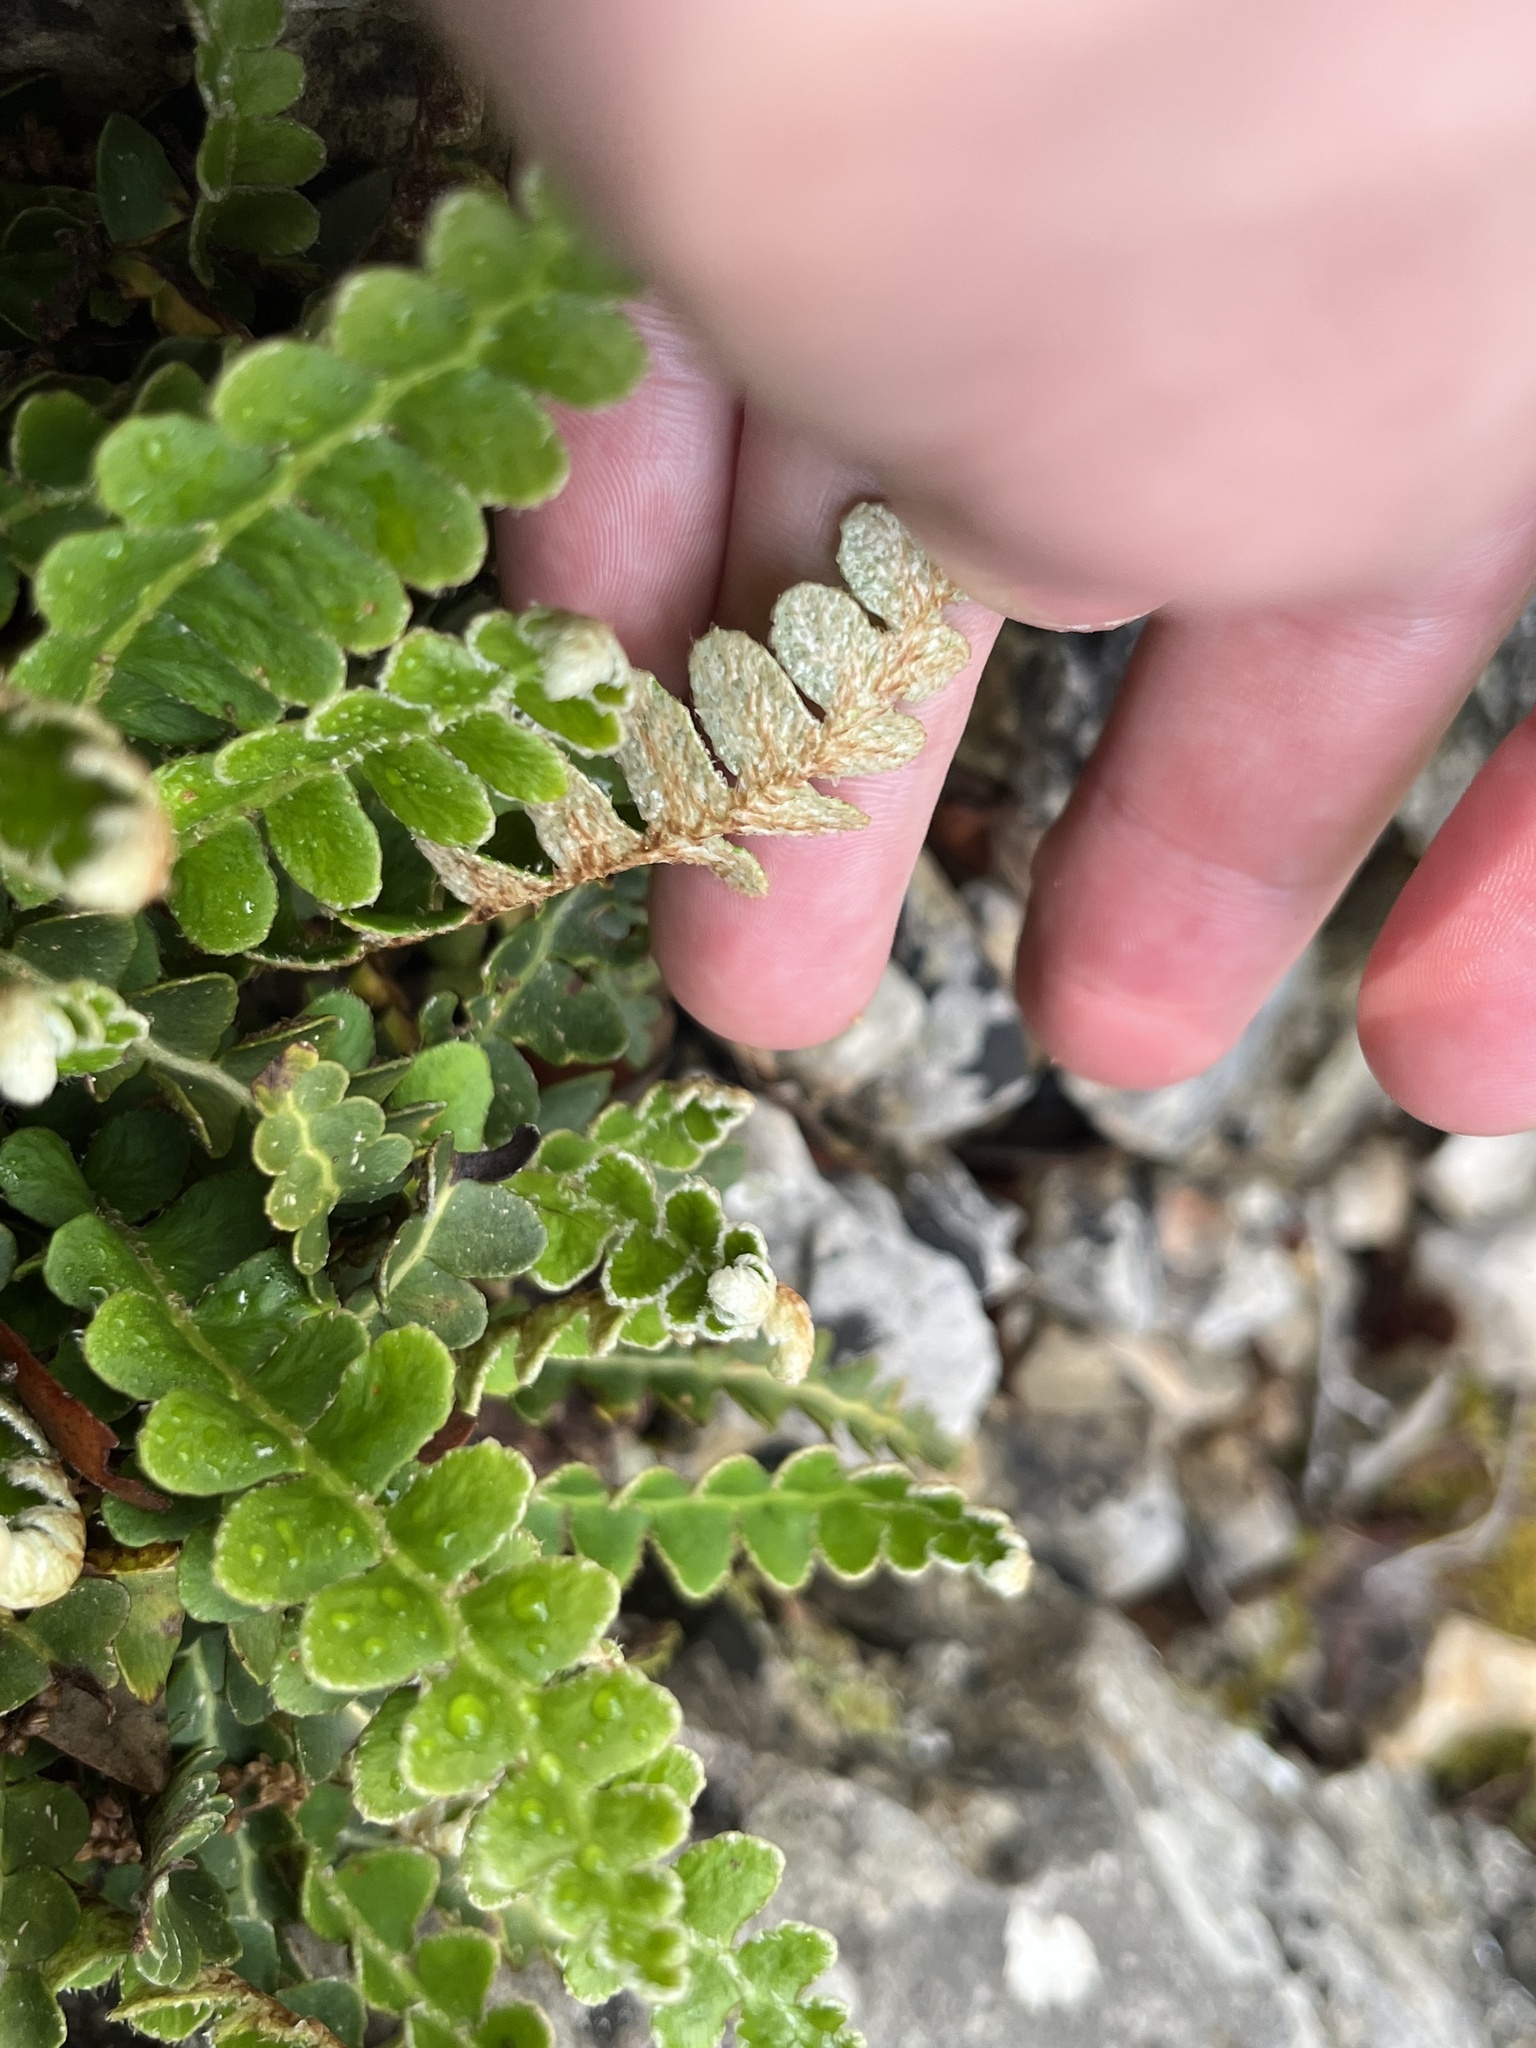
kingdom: Plantae
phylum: Tracheophyta
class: Polypodiopsida
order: Polypodiales
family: Aspleniaceae
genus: Asplenium
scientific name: Asplenium ceterach
